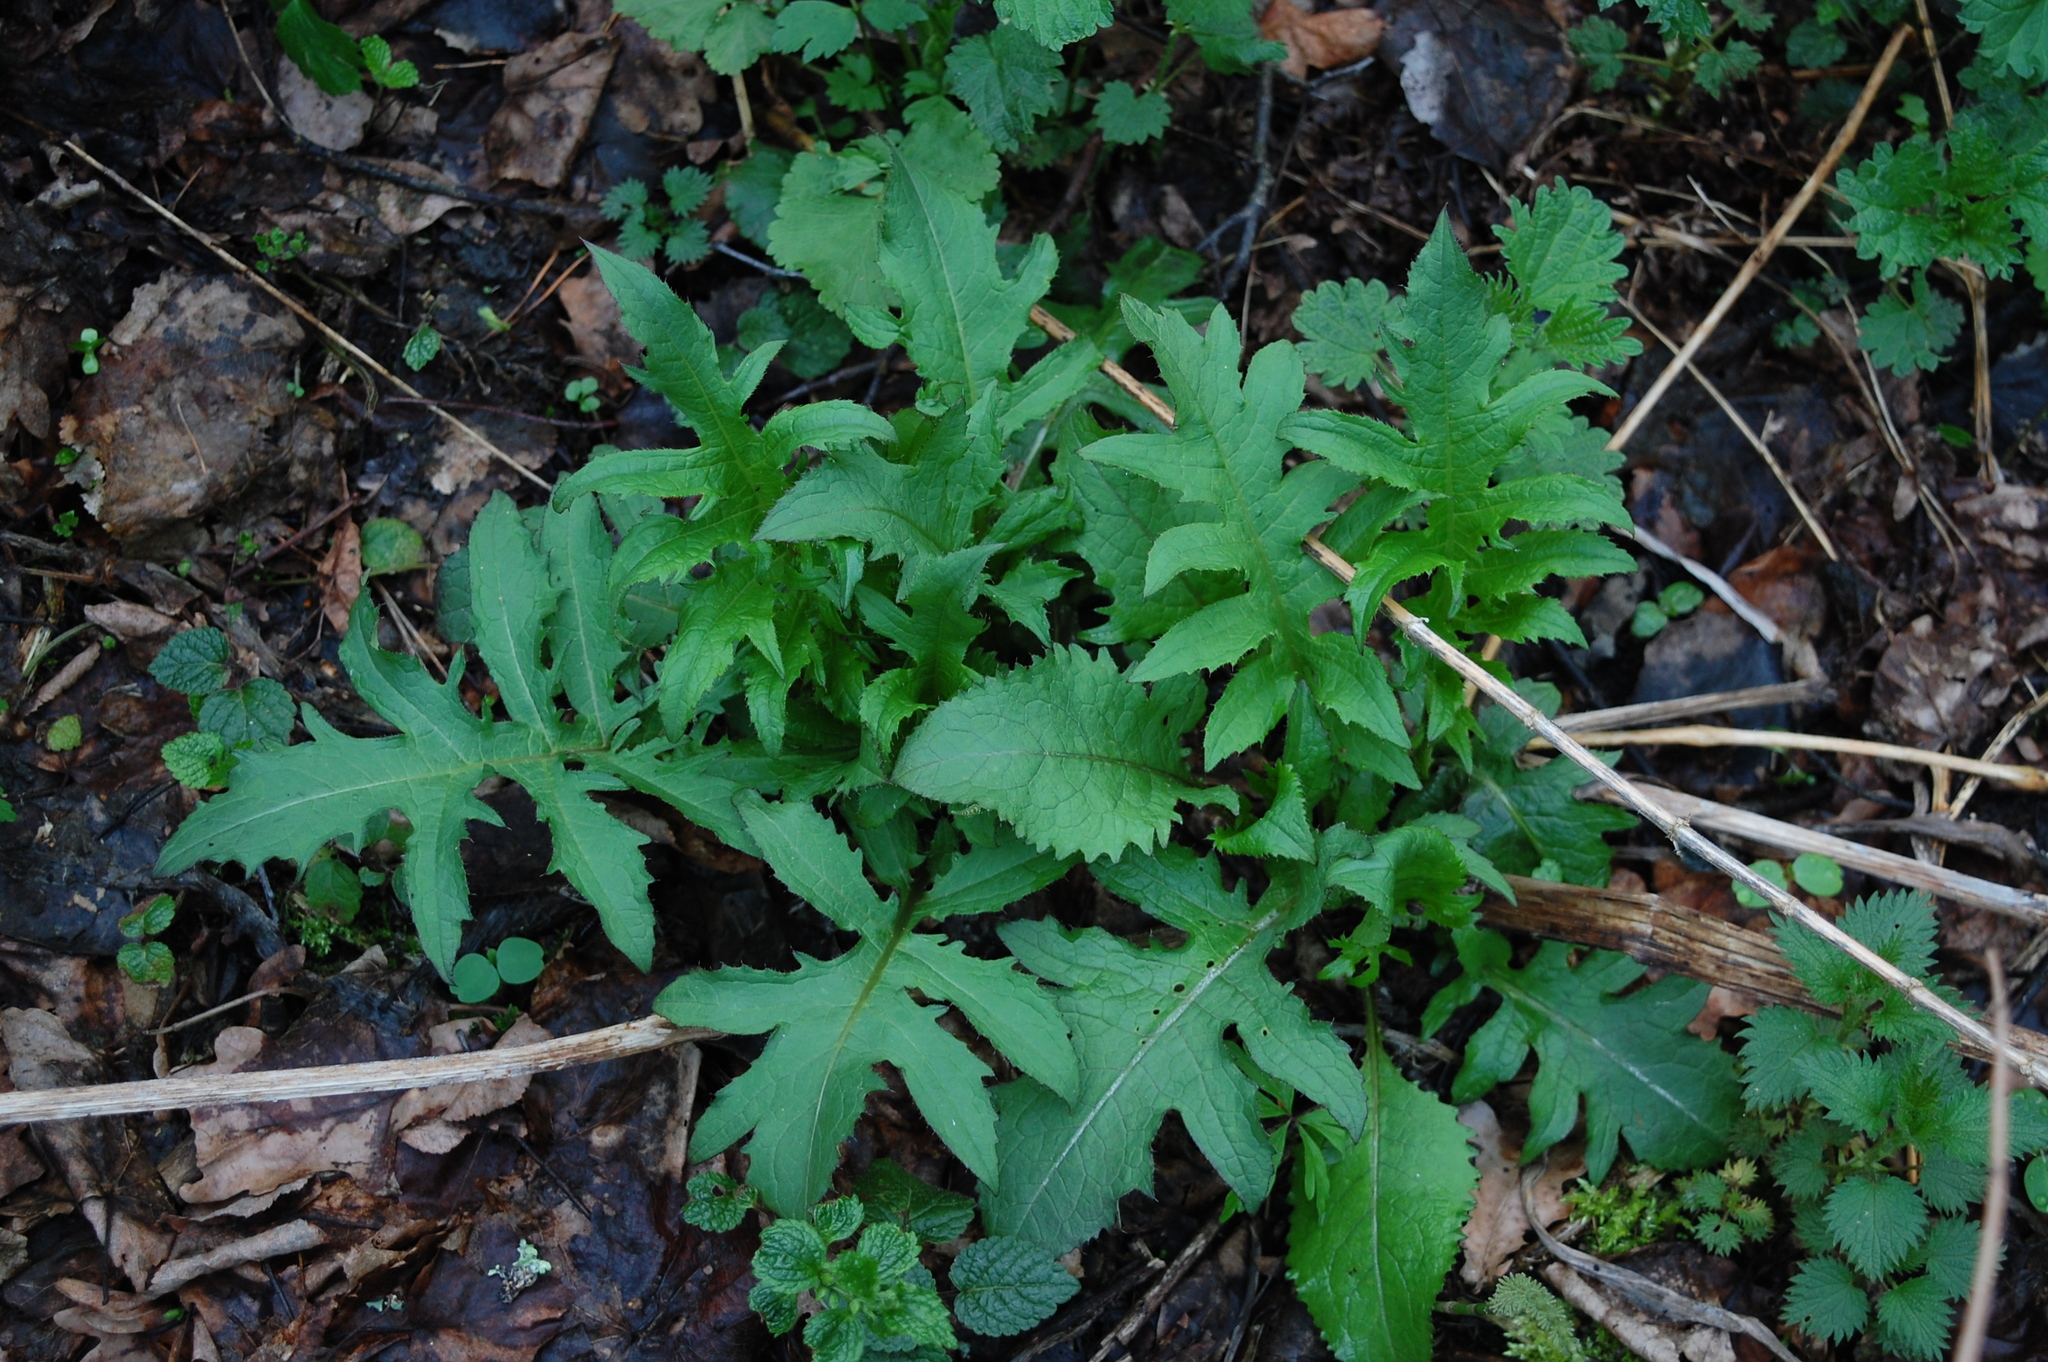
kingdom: Plantae
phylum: Tracheophyta
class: Magnoliopsida
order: Asterales
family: Asteraceae
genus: Cirsium
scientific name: Cirsium oleraceum
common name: Cabbage thistle
